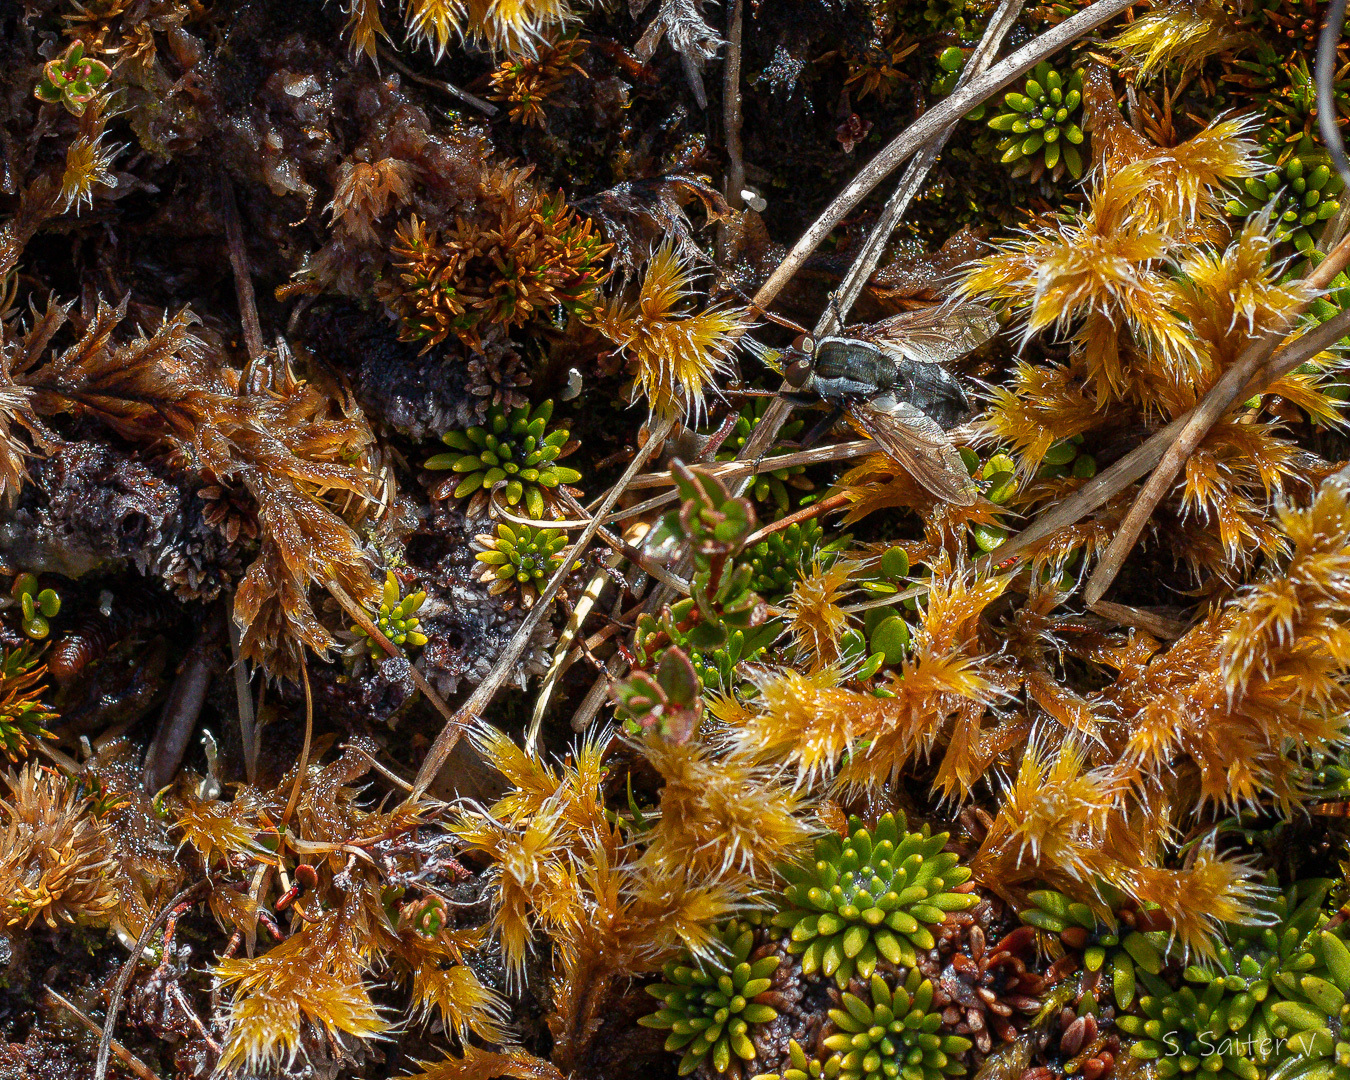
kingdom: Animalia
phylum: Arthropoda
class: Insecta
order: Diptera
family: Tachinidae
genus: Hyadesimyia
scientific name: Hyadesimyia clausa
